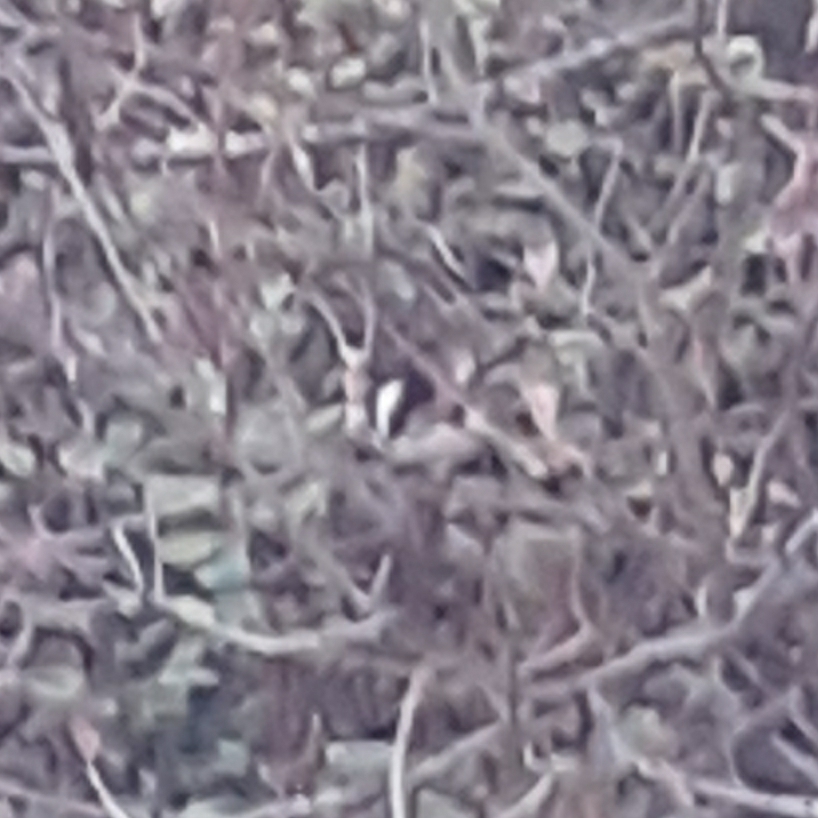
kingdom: Animalia
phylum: Chordata
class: Aves
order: Passeriformes
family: Aegithalidae
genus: Aegithalos
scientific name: Aegithalos caudatus
